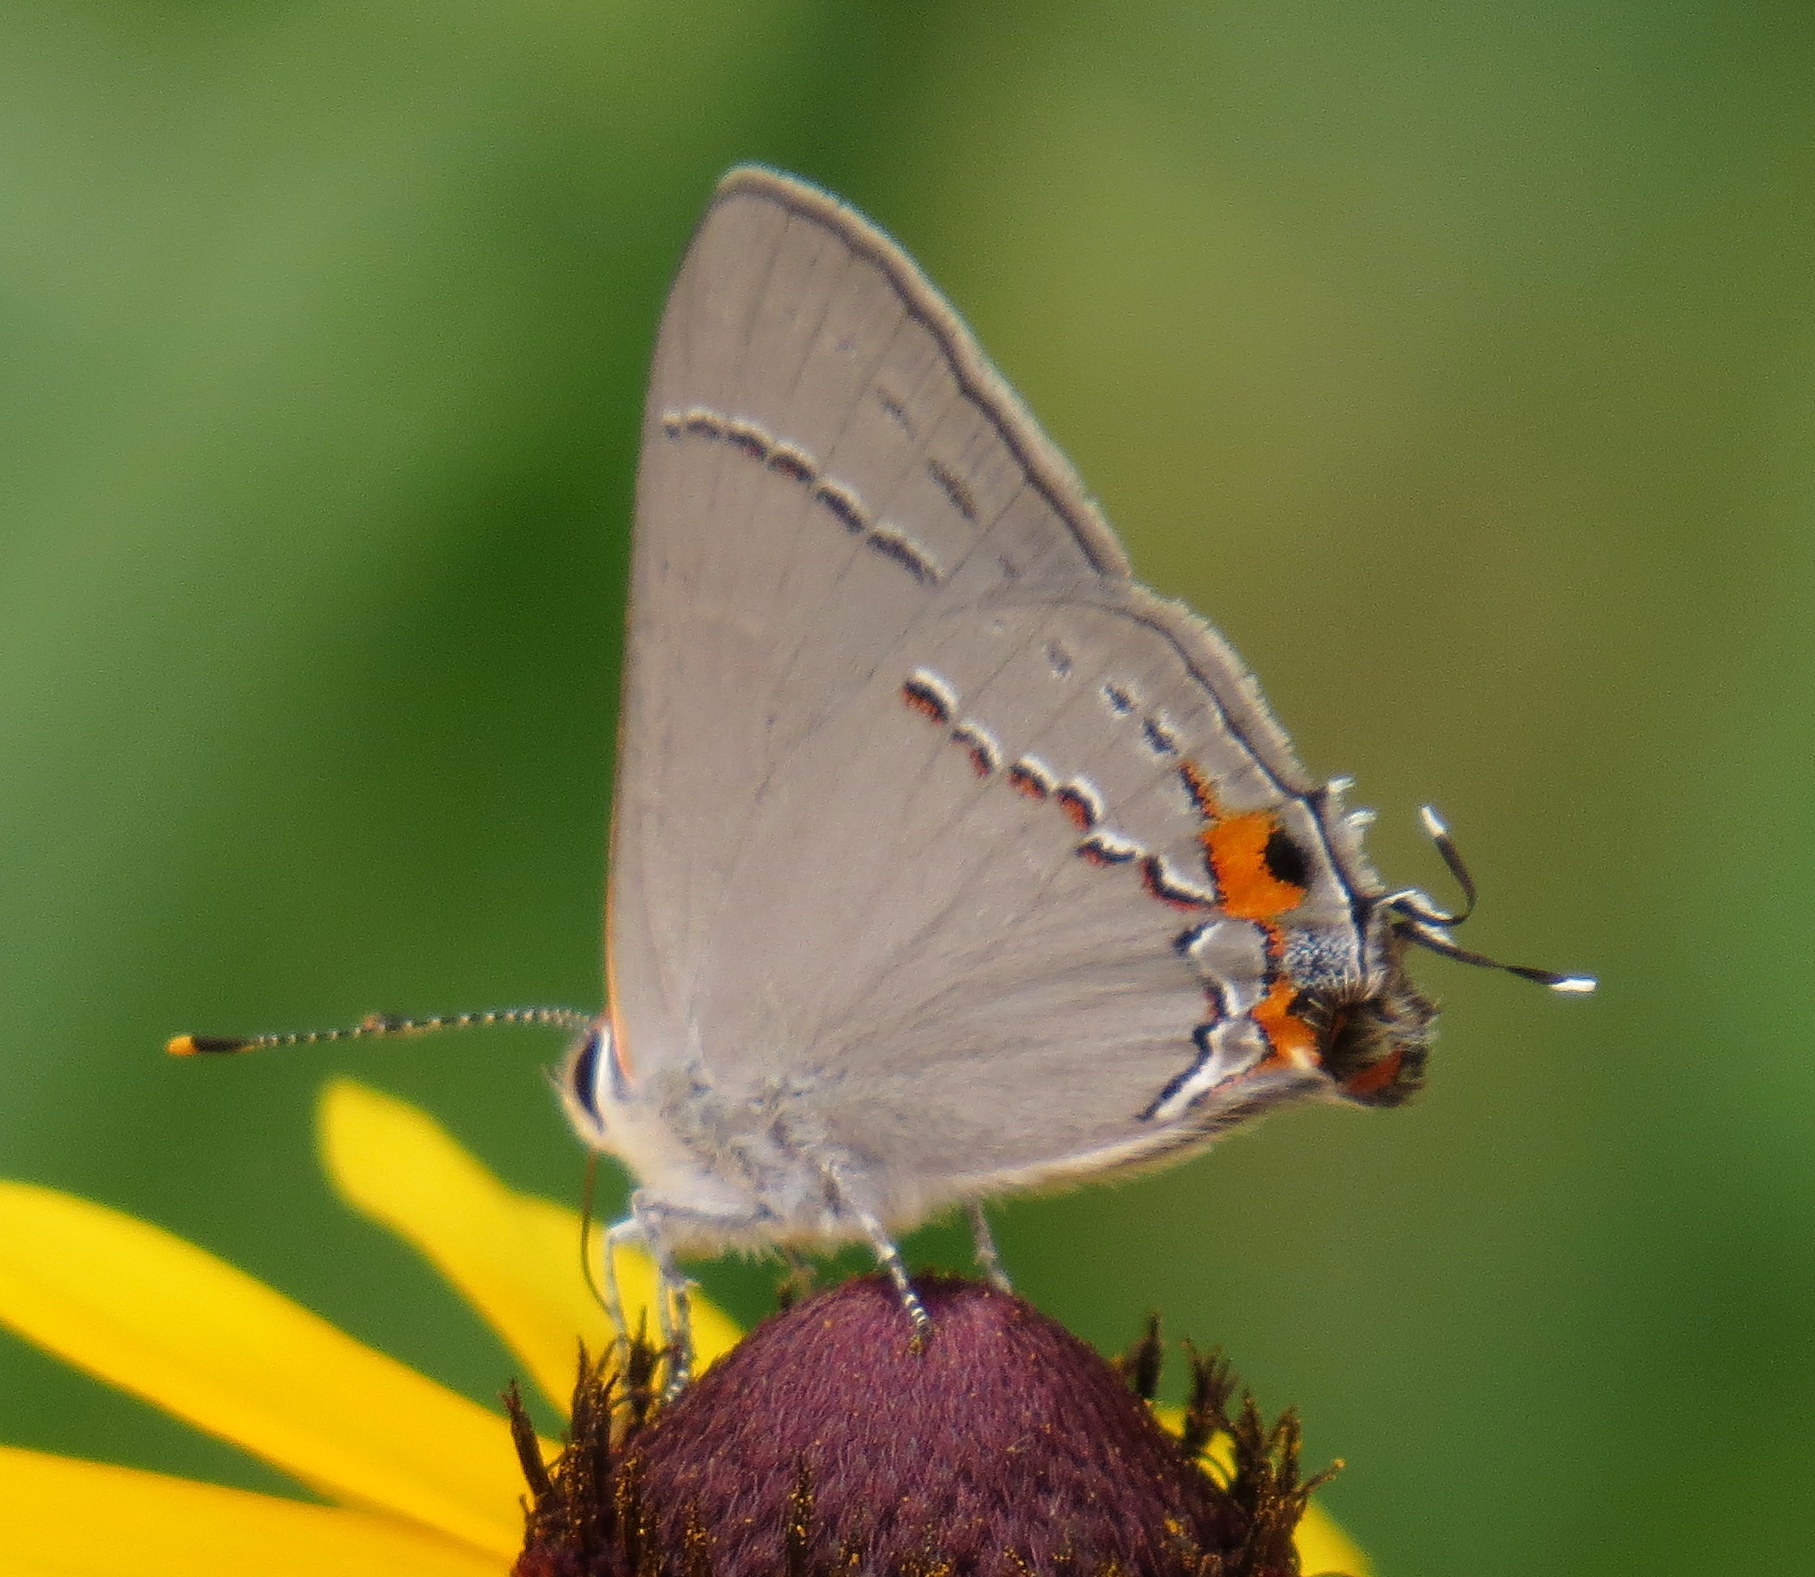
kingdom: Animalia
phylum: Arthropoda
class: Insecta
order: Lepidoptera
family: Lycaenidae
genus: Strymon
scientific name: Strymon melinus
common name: Gray hairstreak
